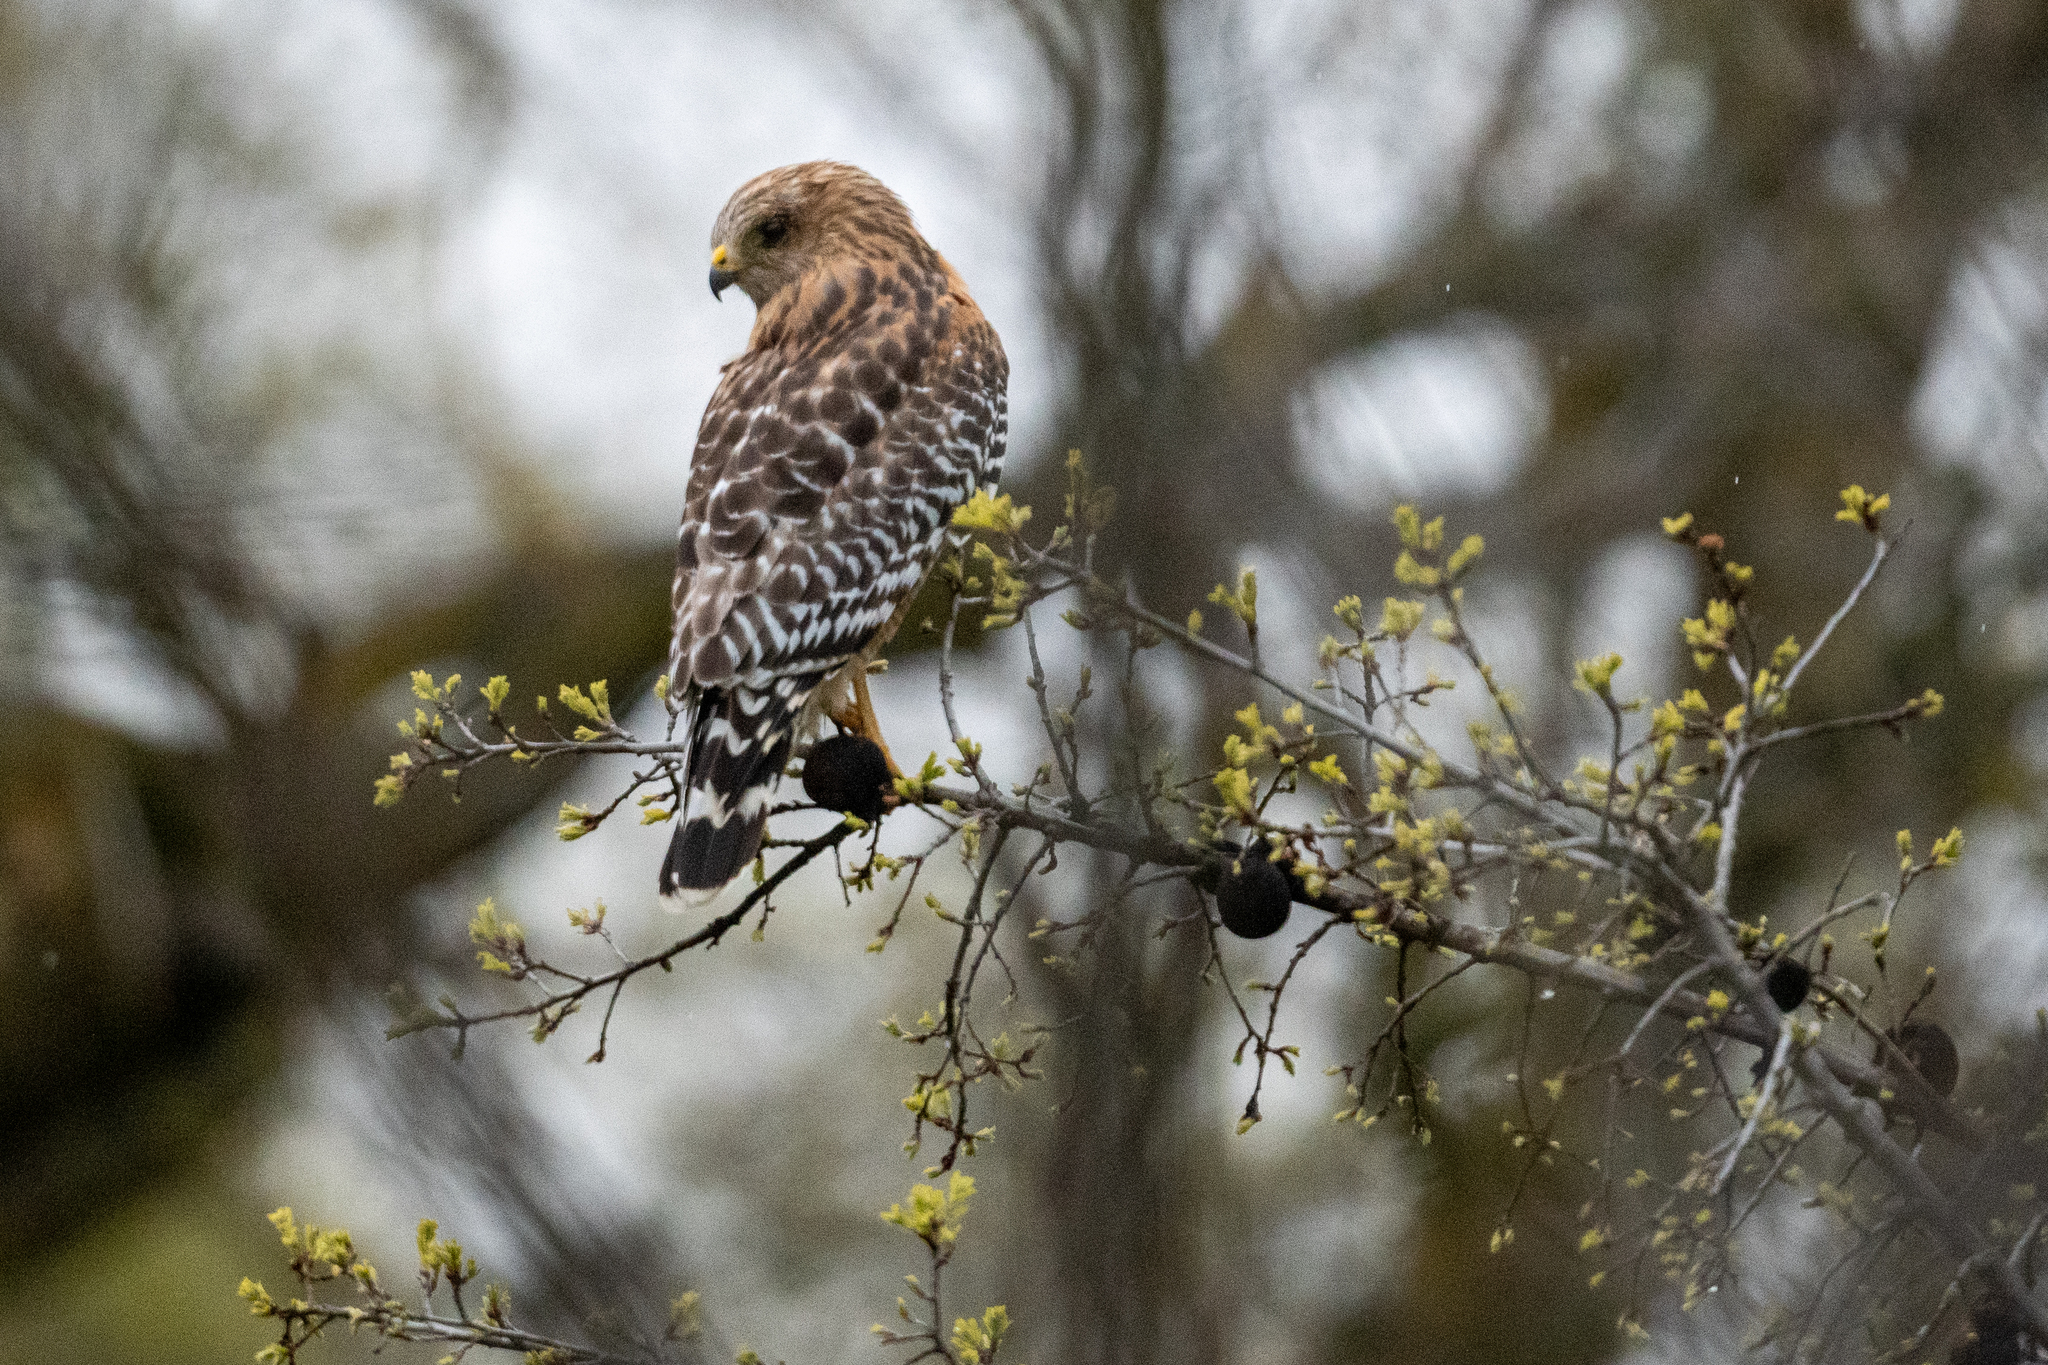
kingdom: Animalia
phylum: Chordata
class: Aves
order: Accipitriformes
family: Accipitridae
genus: Buteo
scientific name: Buteo lineatus
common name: Red-shouldered hawk
